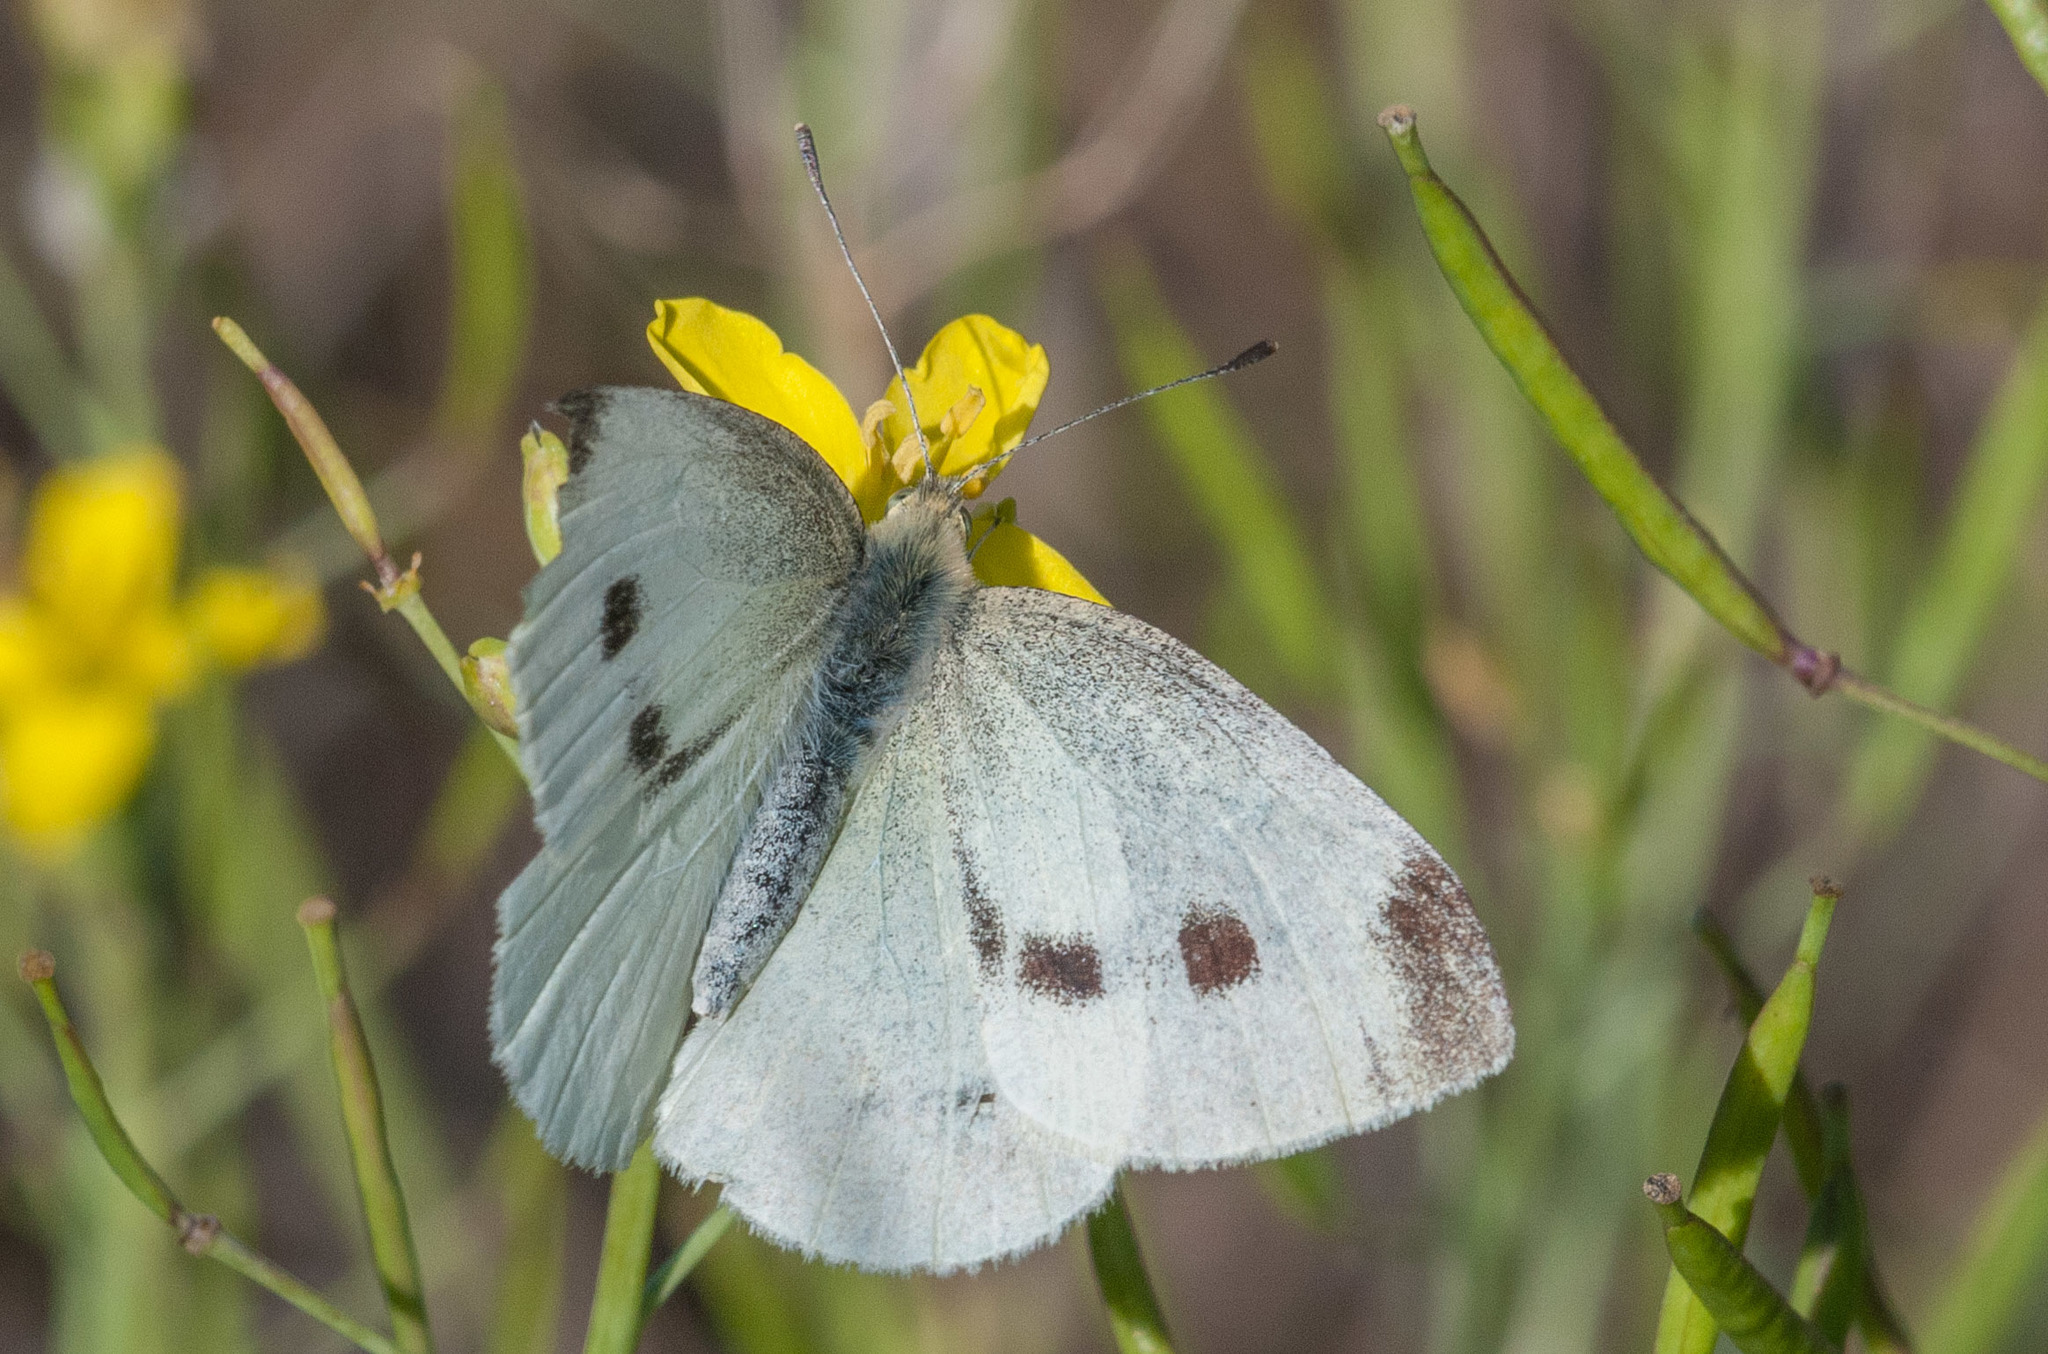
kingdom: Animalia
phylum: Arthropoda
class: Insecta
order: Lepidoptera
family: Pieridae
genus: Pieris
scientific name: Pieris rapae
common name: Small white
